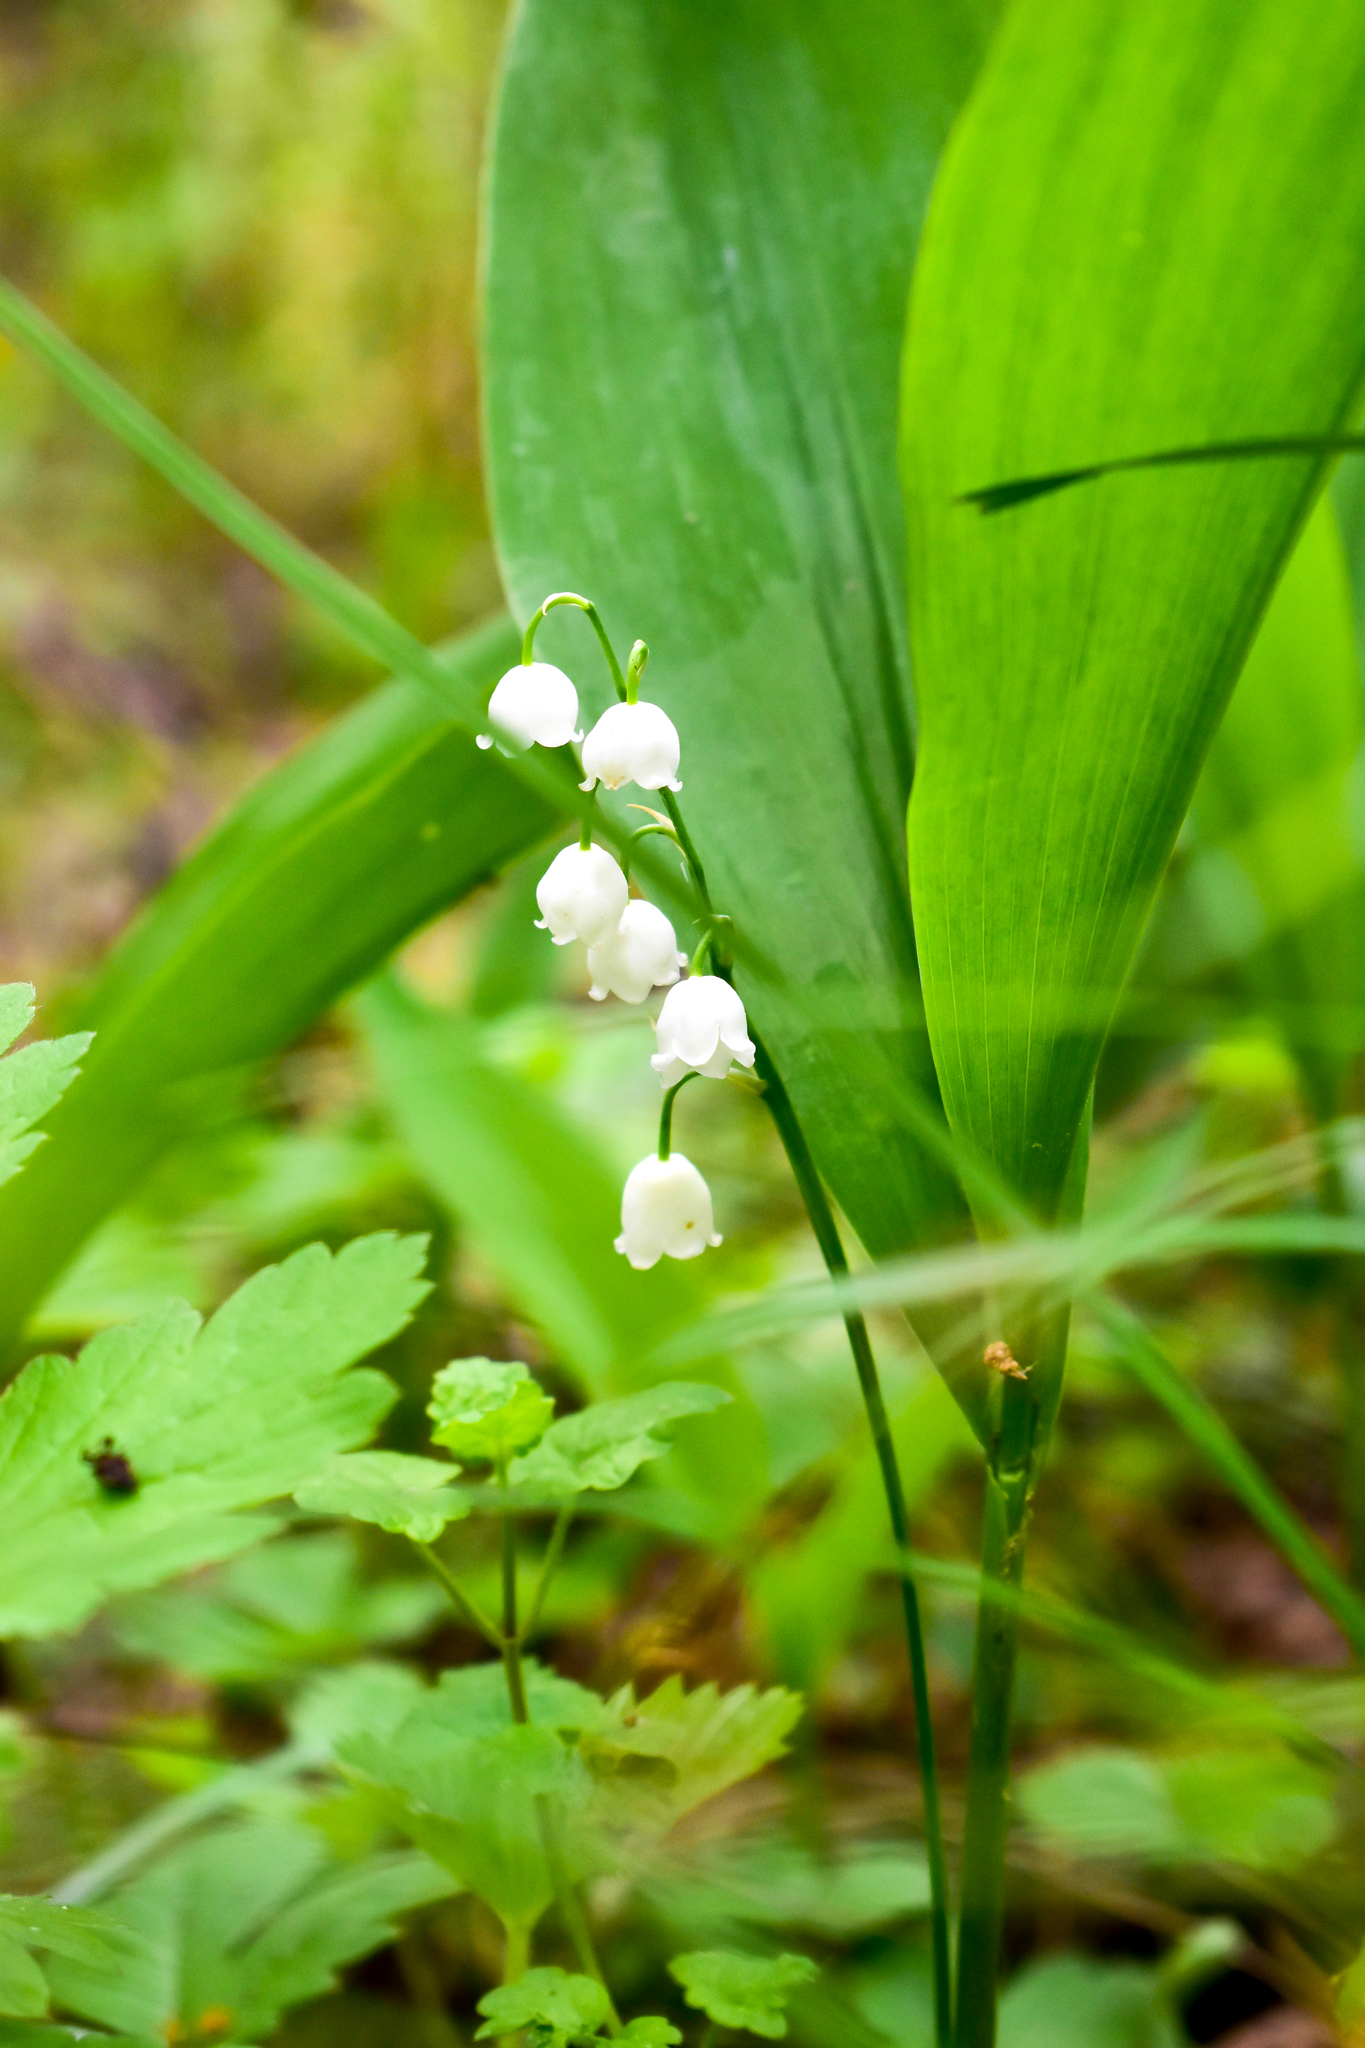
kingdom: Plantae
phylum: Tracheophyta
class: Liliopsida
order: Asparagales
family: Asparagaceae
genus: Convallaria
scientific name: Convallaria majalis
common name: Lily-of-the-valley
